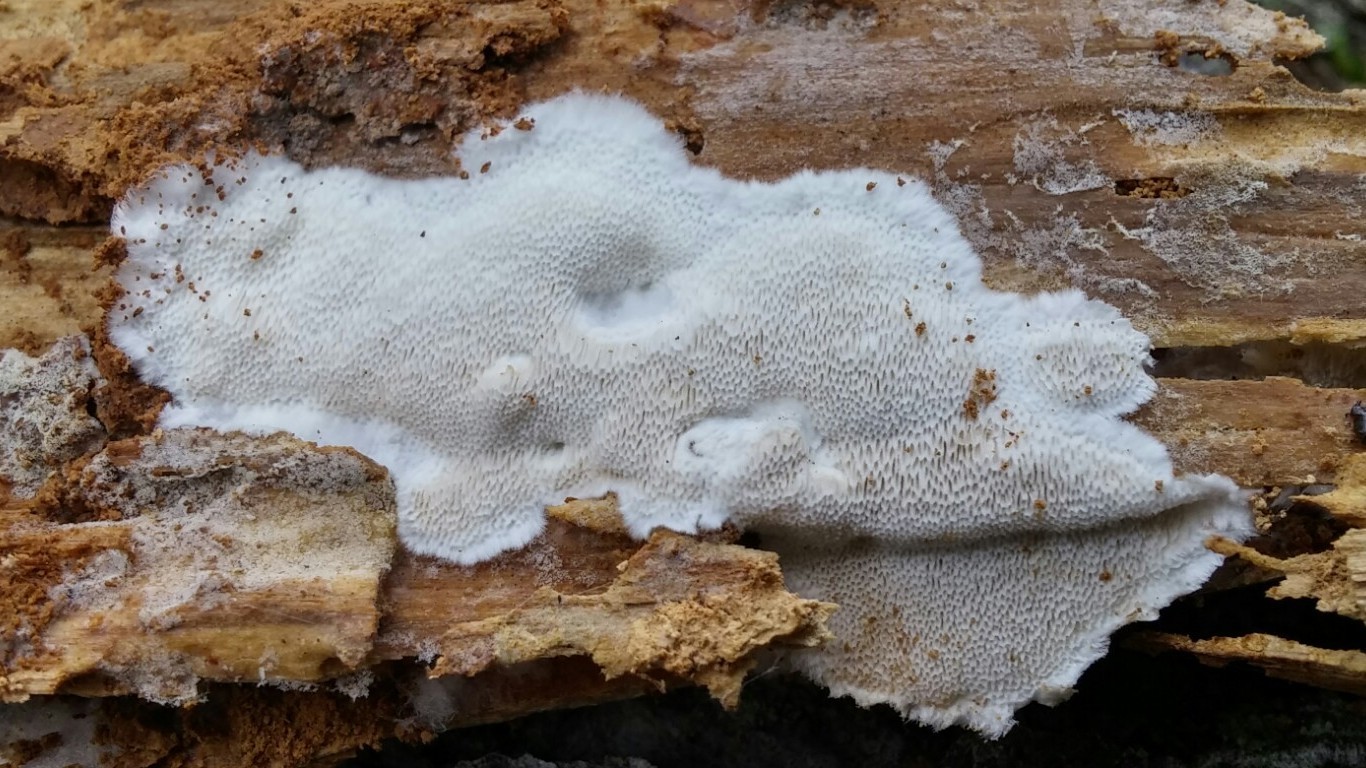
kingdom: Fungi
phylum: Basidiomycota
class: Agaricomycetes
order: Polyporales
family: Fomitopsidaceae
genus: Antrodia
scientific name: Antrodia sinuosa
